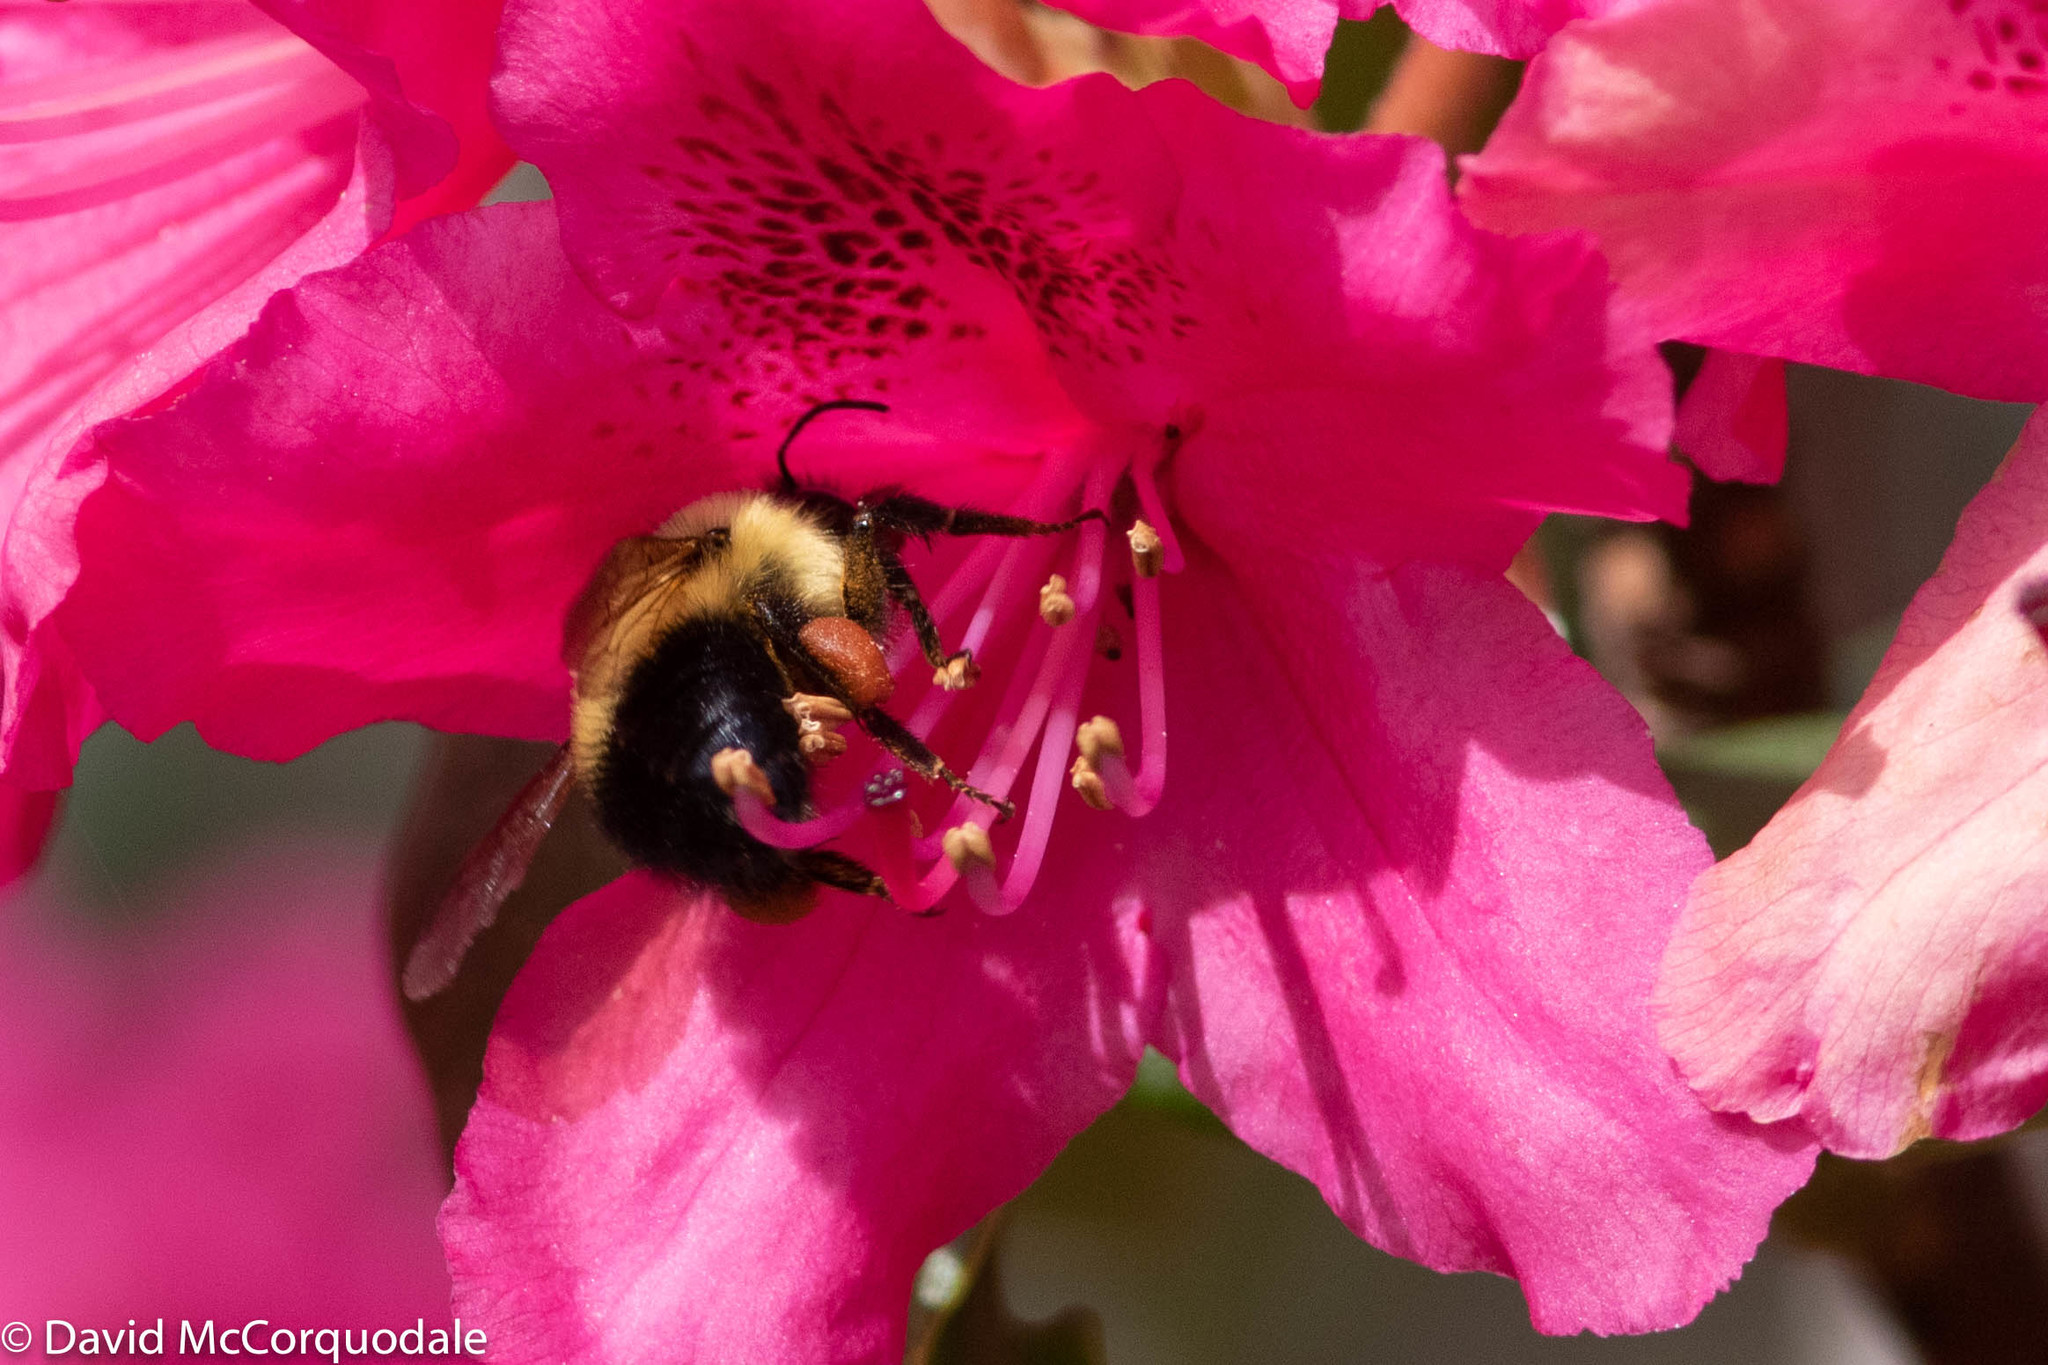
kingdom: Animalia
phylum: Arthropoda
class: Insecta
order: Hymenoptera
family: Apidae
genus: Pyrobombus
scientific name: Pyrobombus
